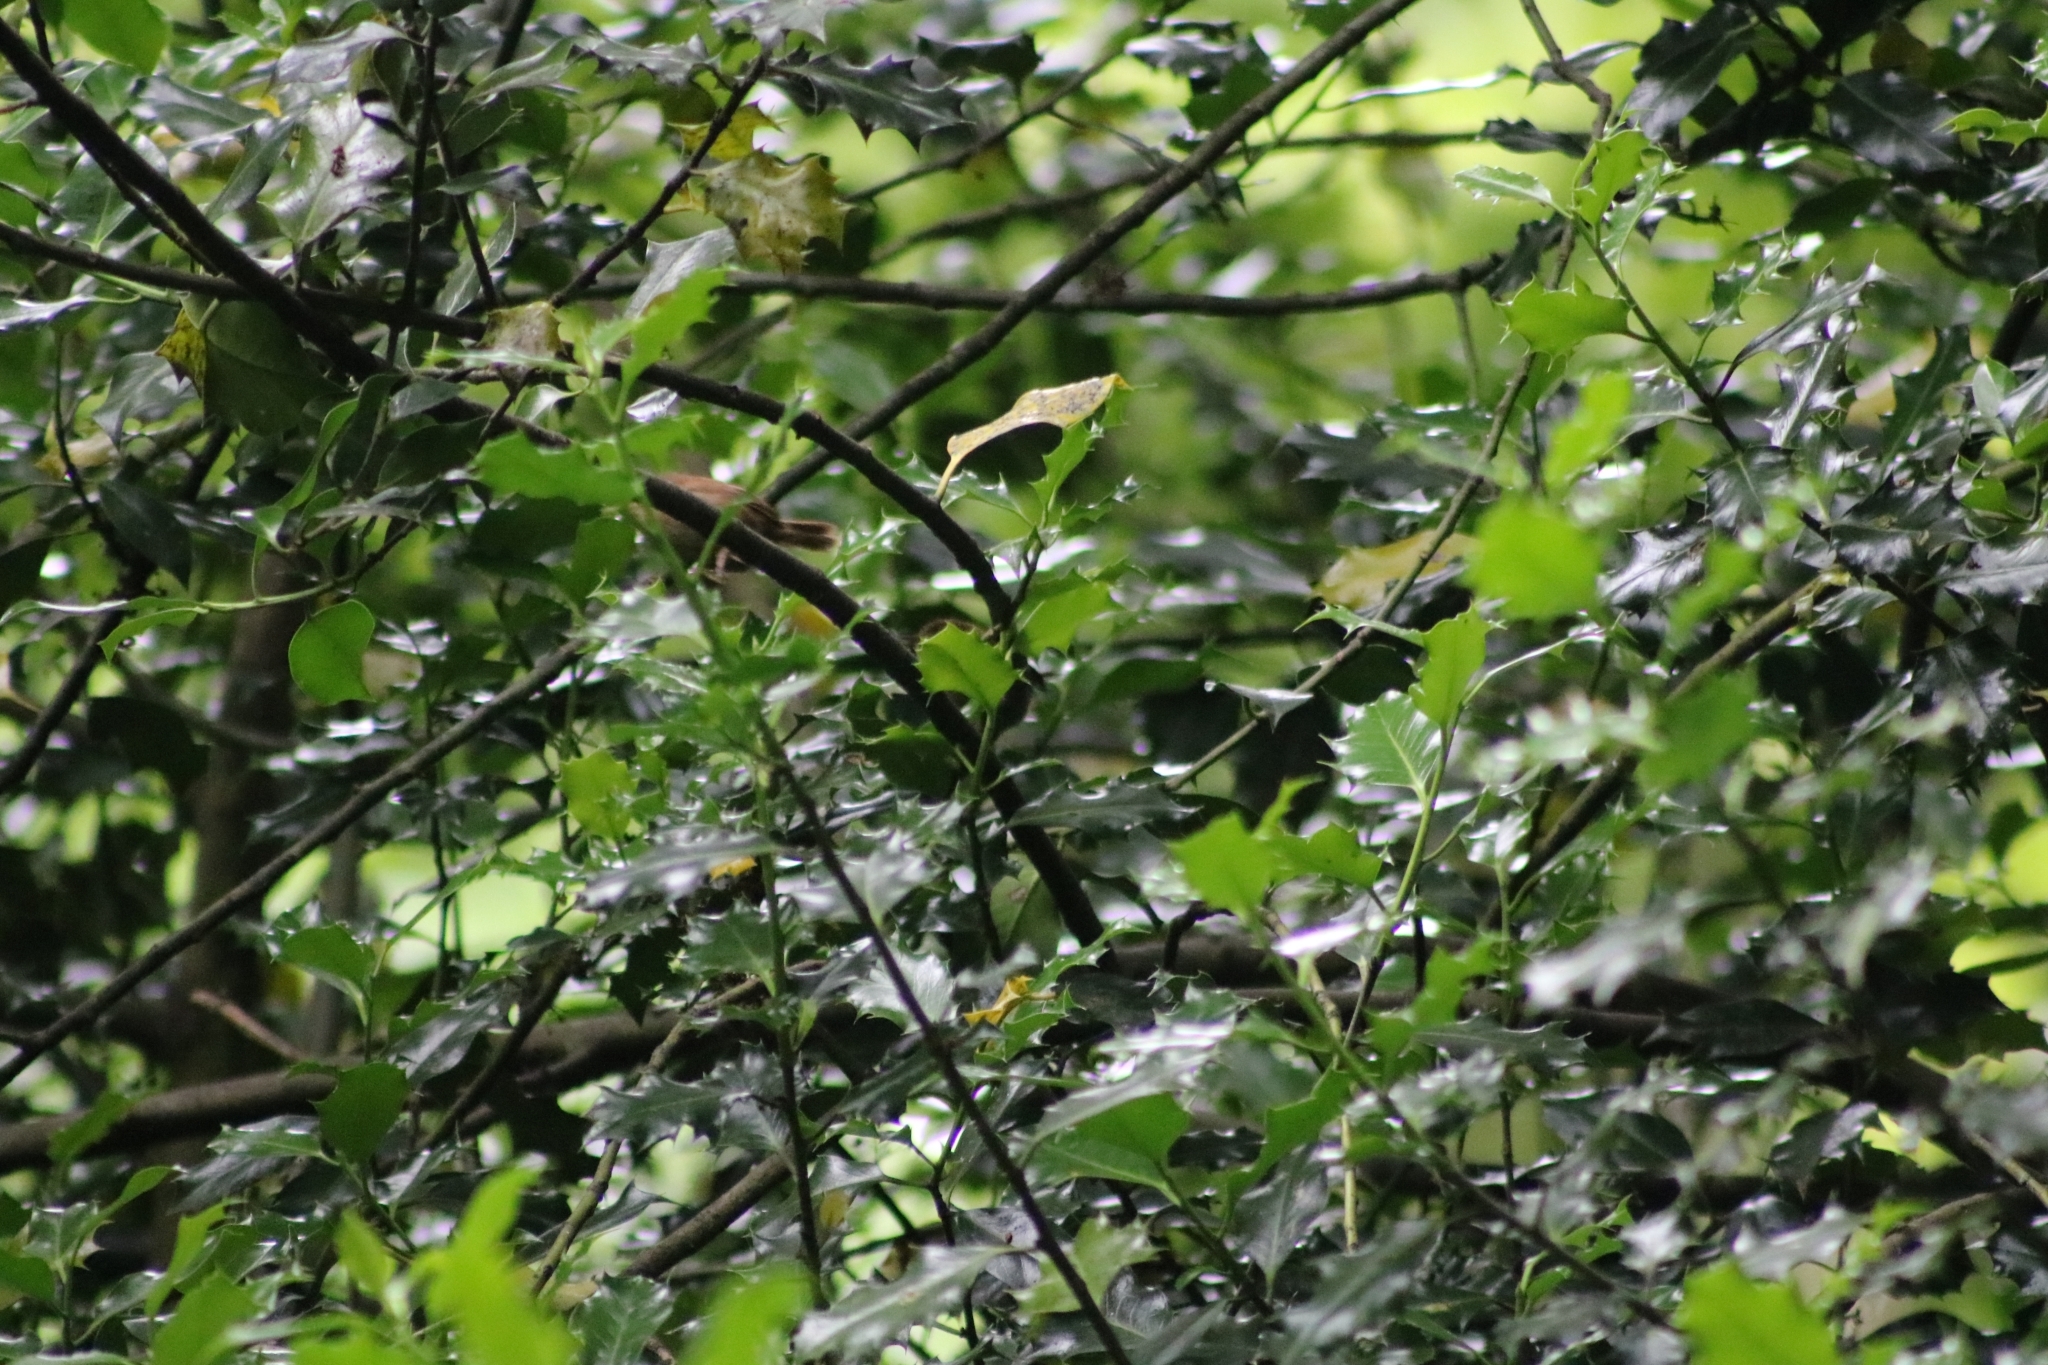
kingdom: Animalia
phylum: Chordata
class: Aves
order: Passeriformes
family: Troglodytidae
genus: Troglodytes
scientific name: Troglodytes troglodytes
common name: Eurasian wren
